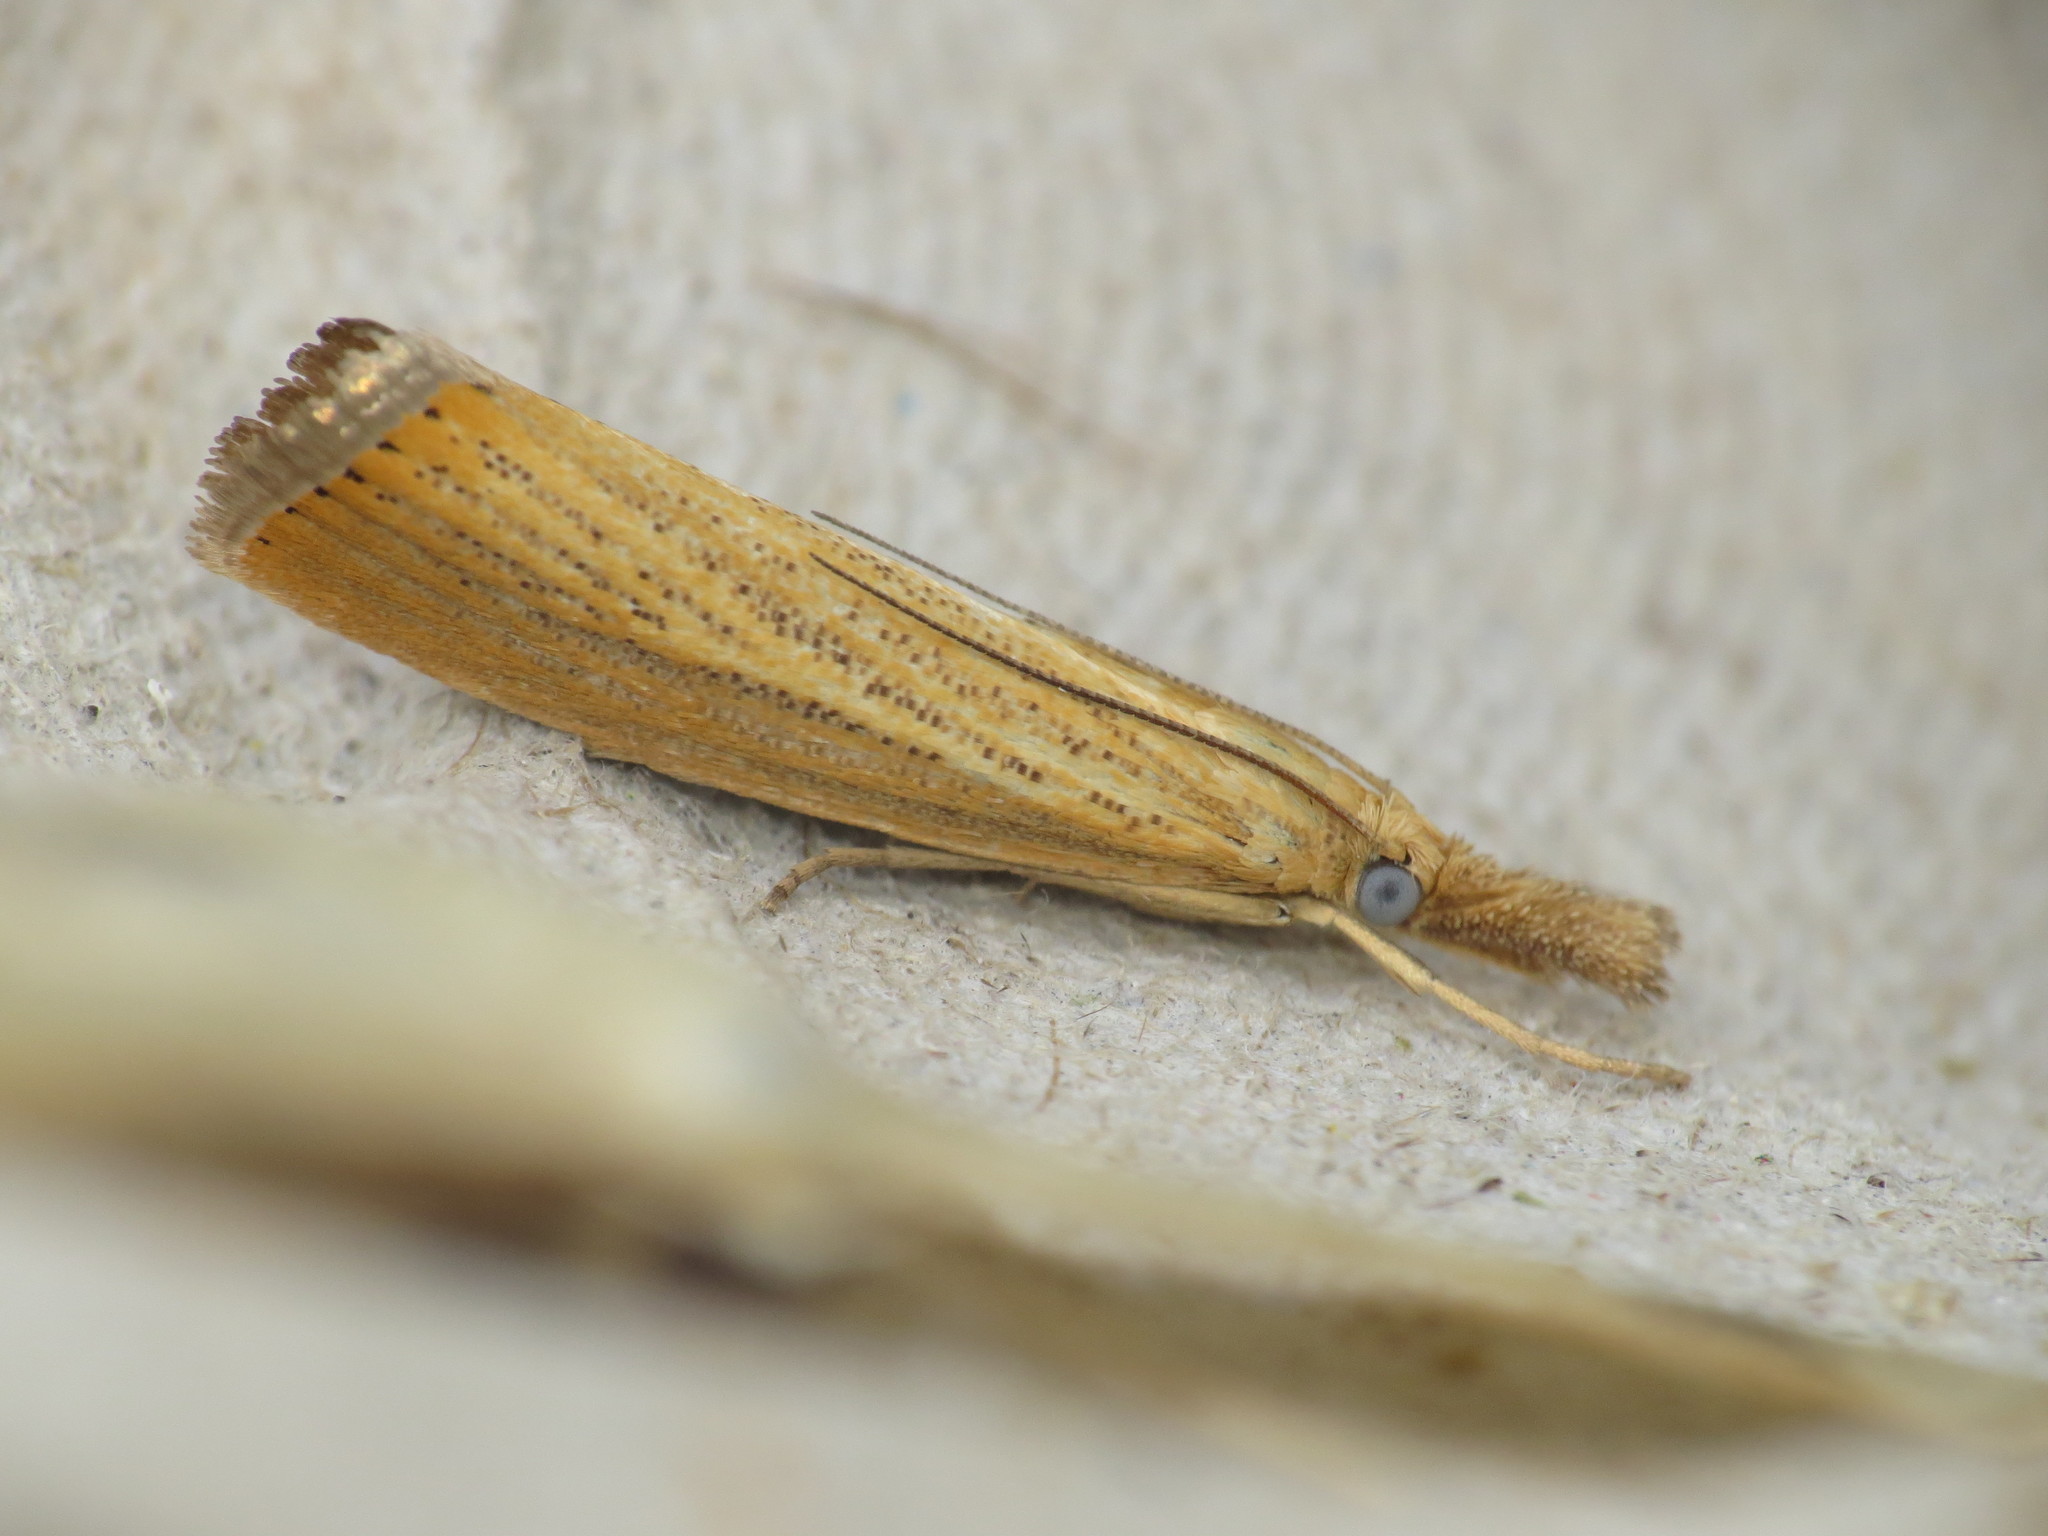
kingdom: Animalia
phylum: Arthropoda
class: Insecta
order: Lepidoptera
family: Crambidae
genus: Agriphila
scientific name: Agriphila straminella
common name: Straw grass-veneer
